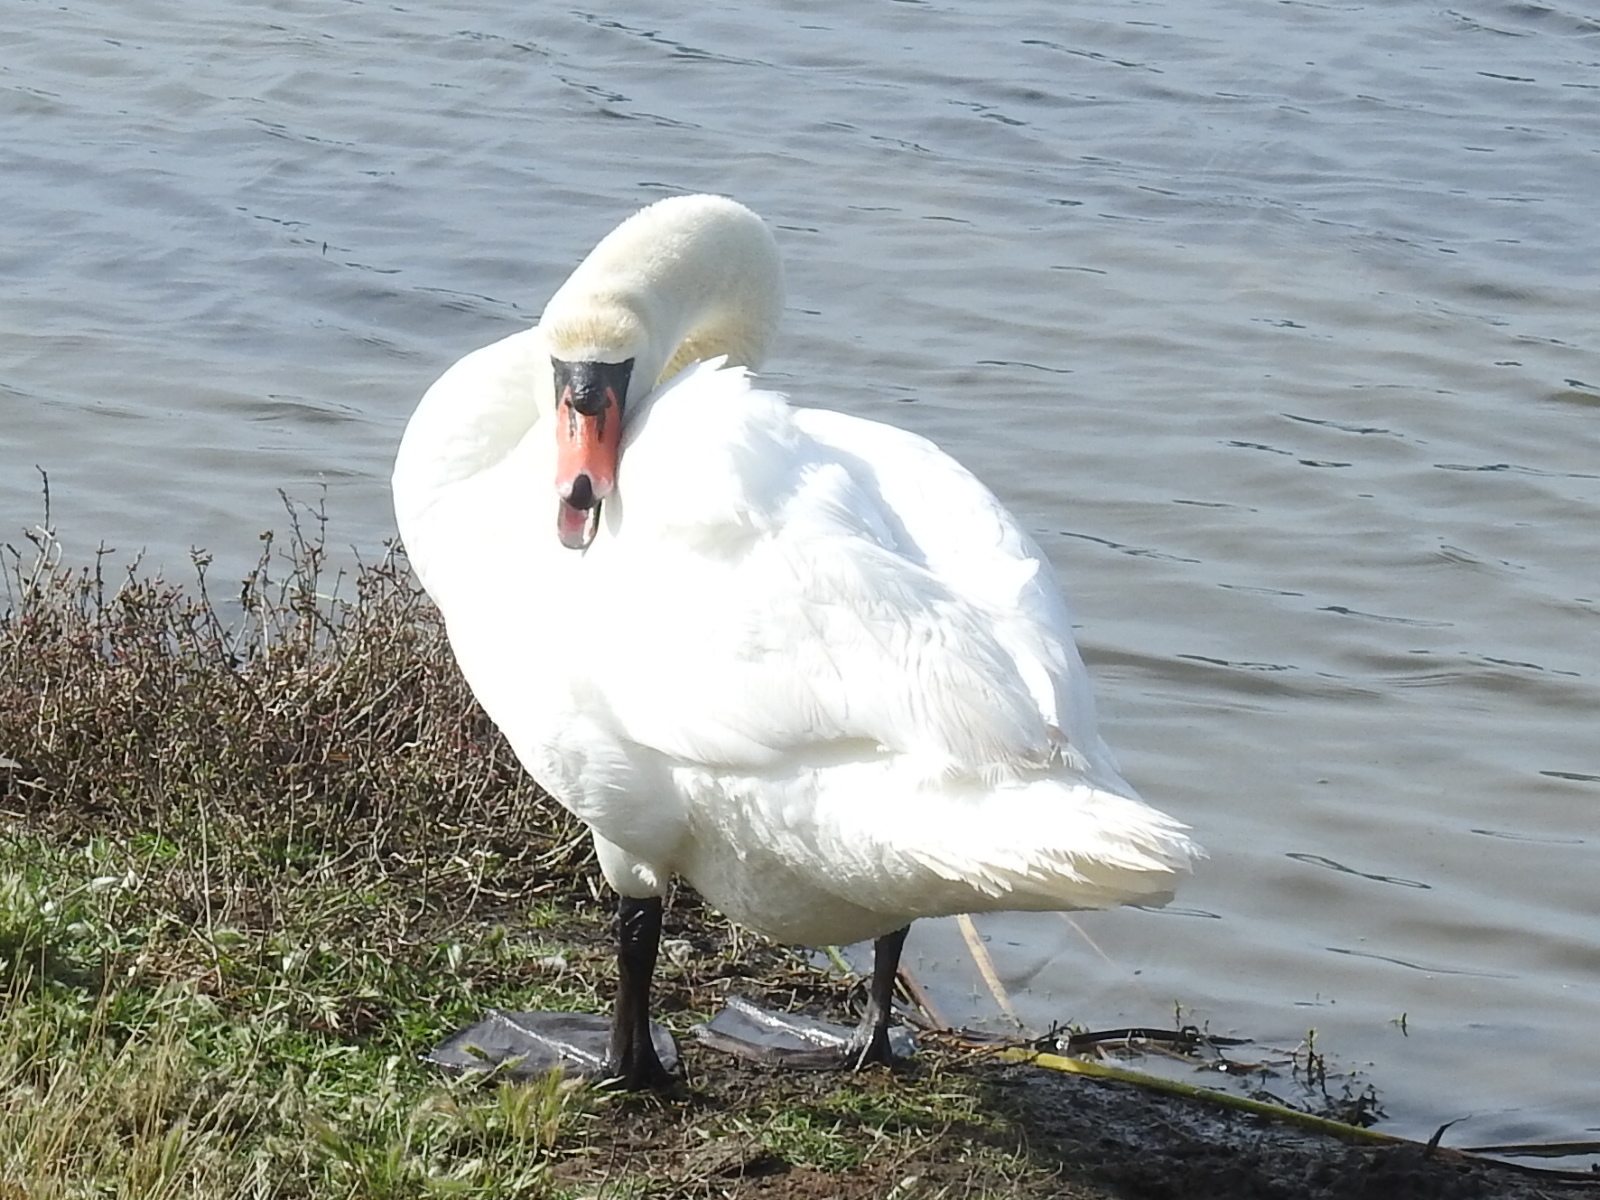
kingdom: Animalia
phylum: Chordata
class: Aves
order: Anseriformes
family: Anatidae
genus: Cygnus
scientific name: Cygnus olor
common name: Mute swan
